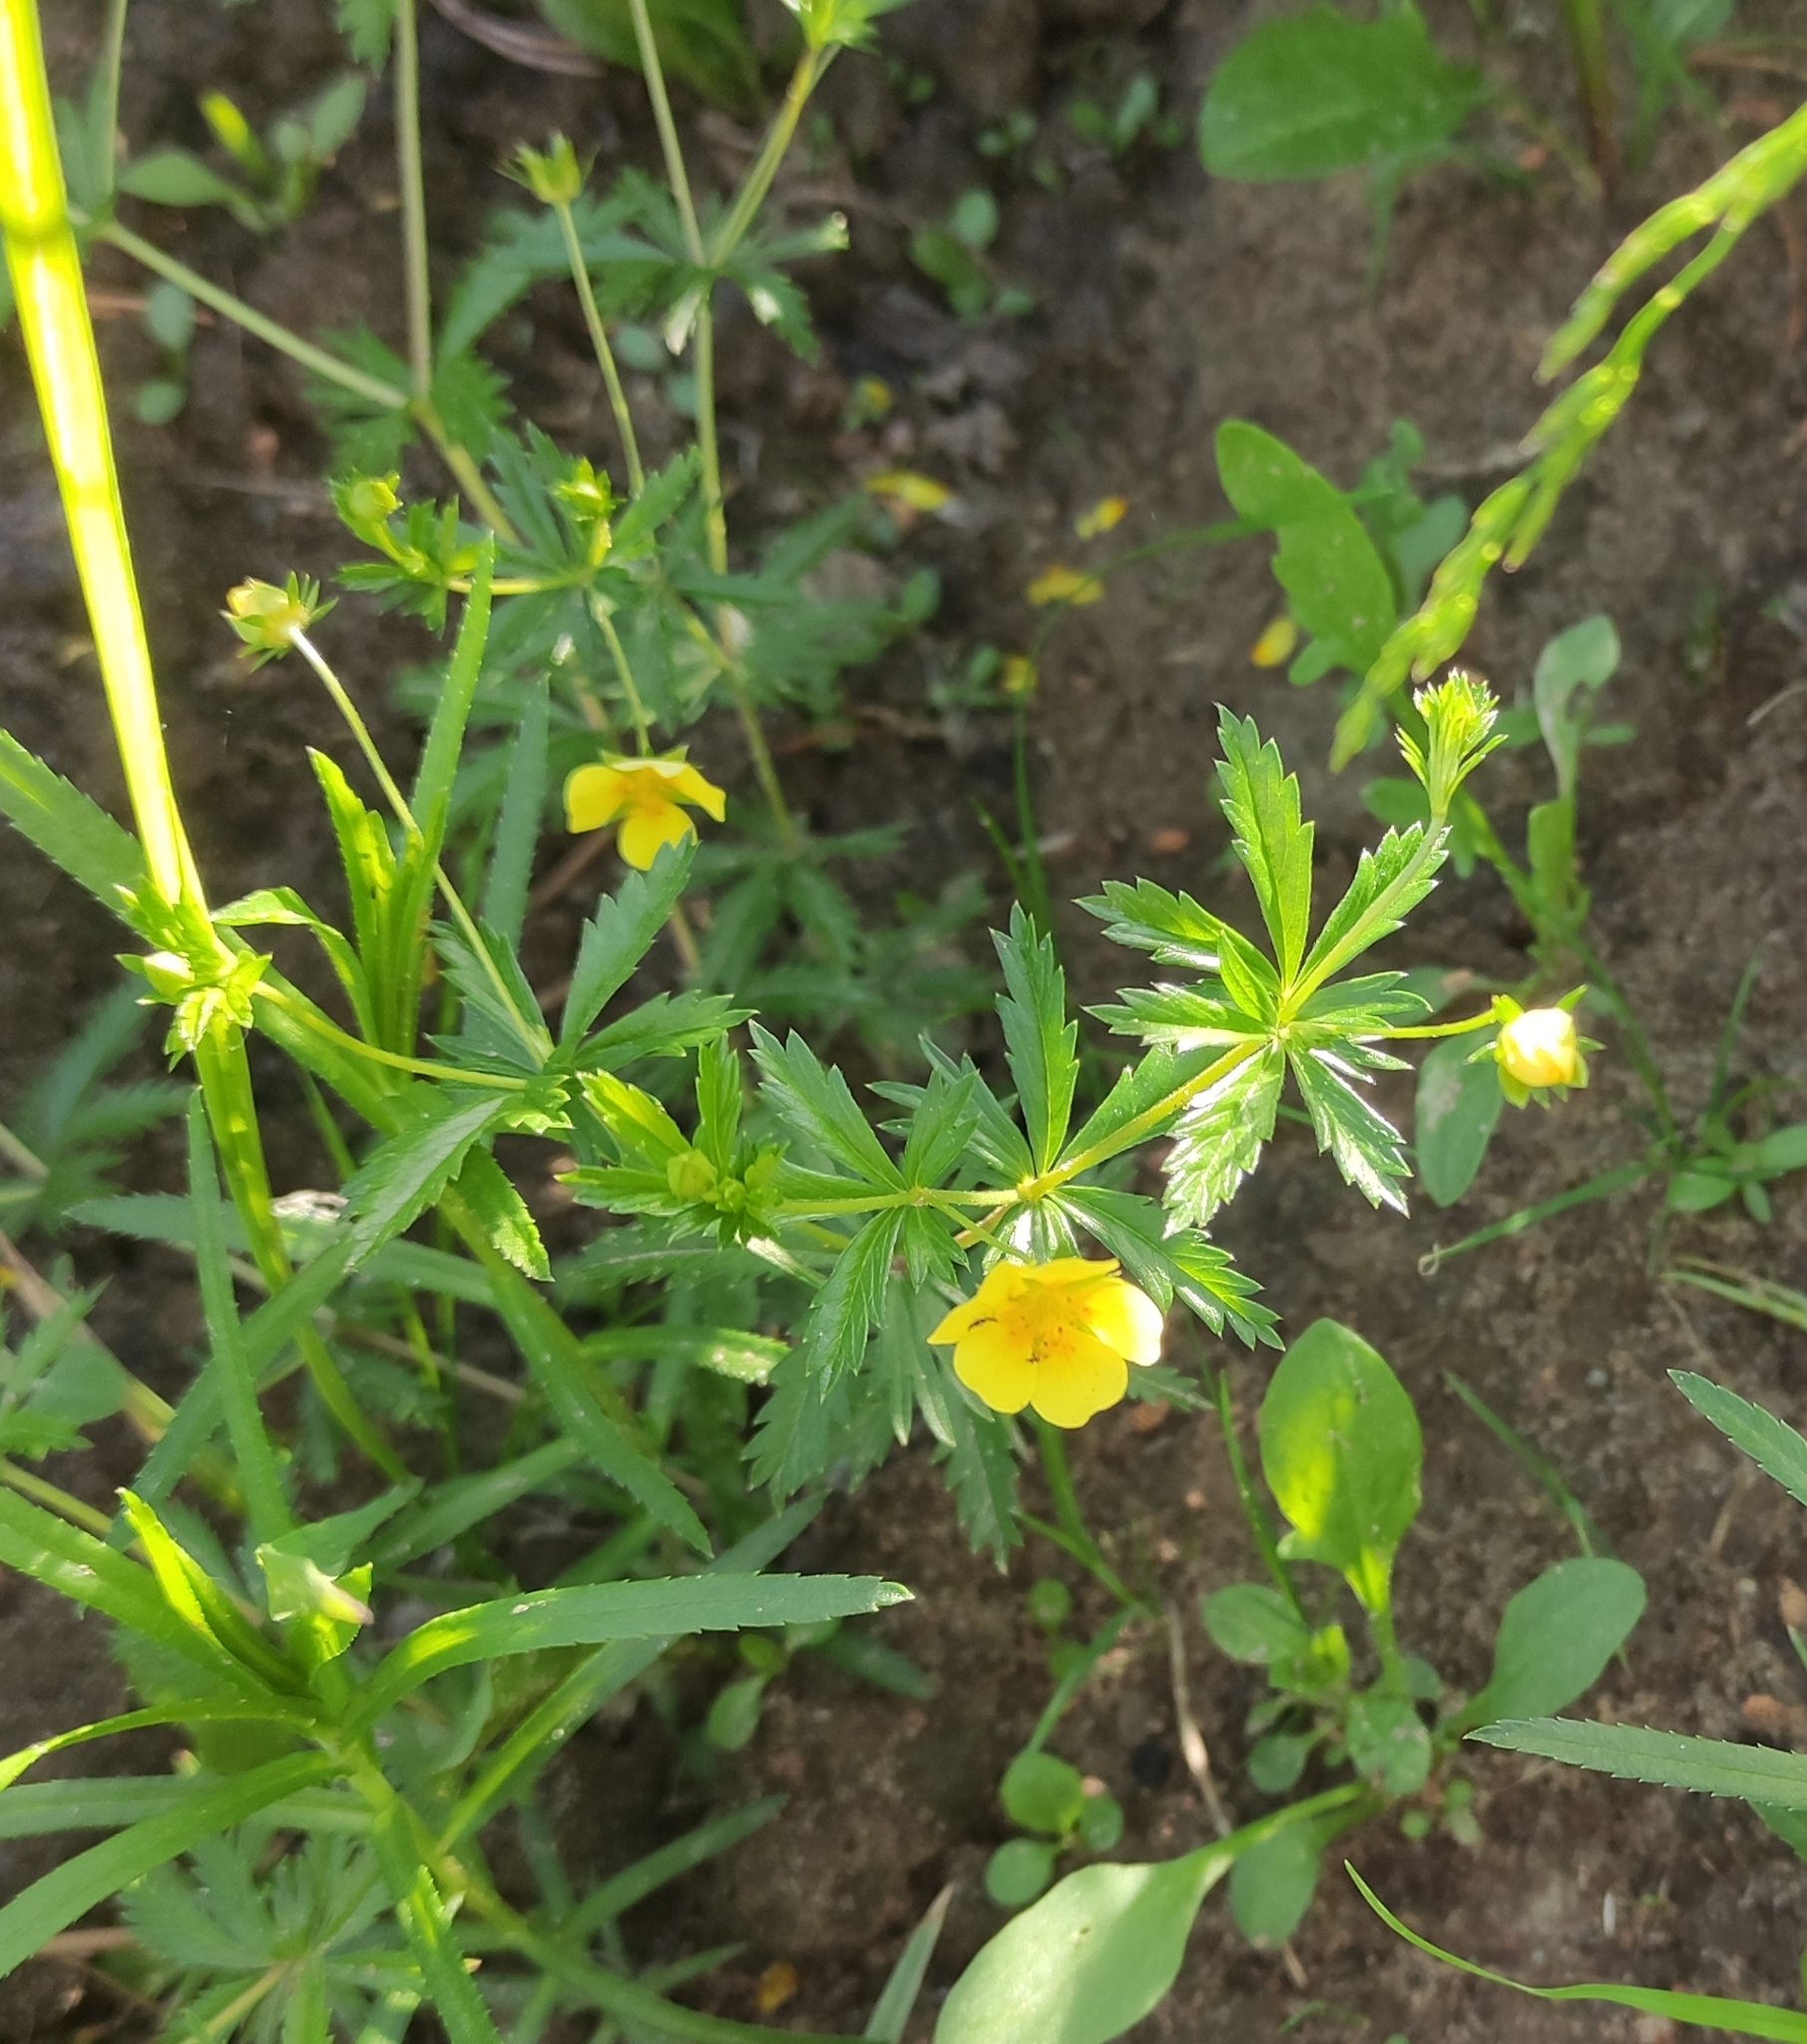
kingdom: Plantae
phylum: Tracheophyta
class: Magnoliopsida
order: Rosales
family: Rosaceae
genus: Potentilla
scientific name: Potentilla erecta
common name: Tormentil
